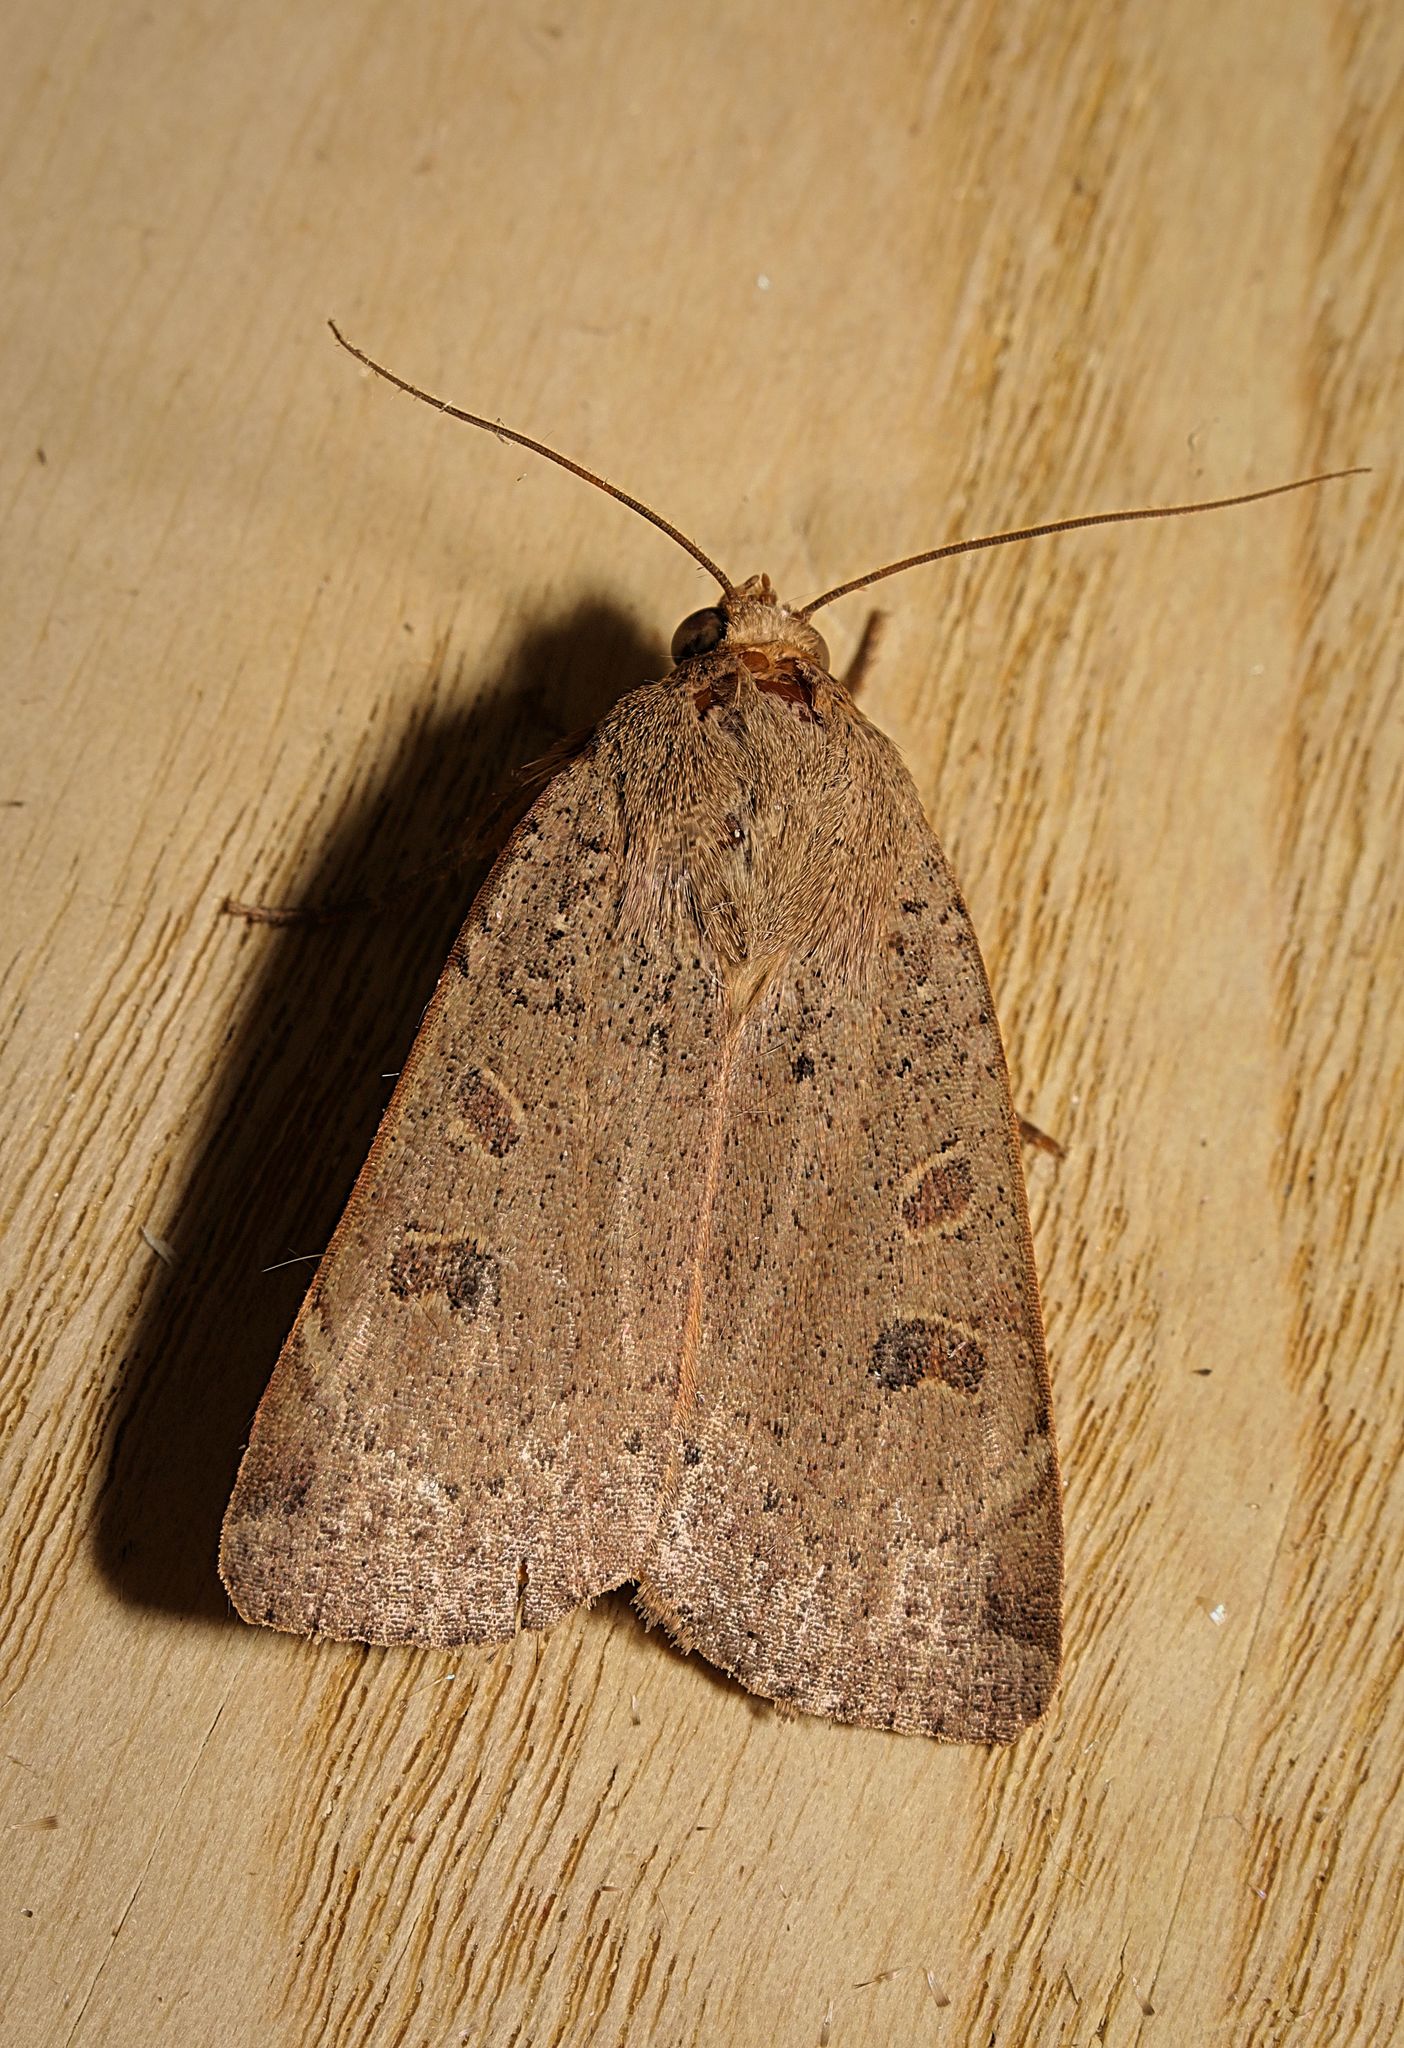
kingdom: Animalia
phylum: Arthropoda
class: Insecta
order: Lepidoptera
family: Noctuidae
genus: Noctua
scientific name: Noctua comes
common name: Lesser yellow underwing
